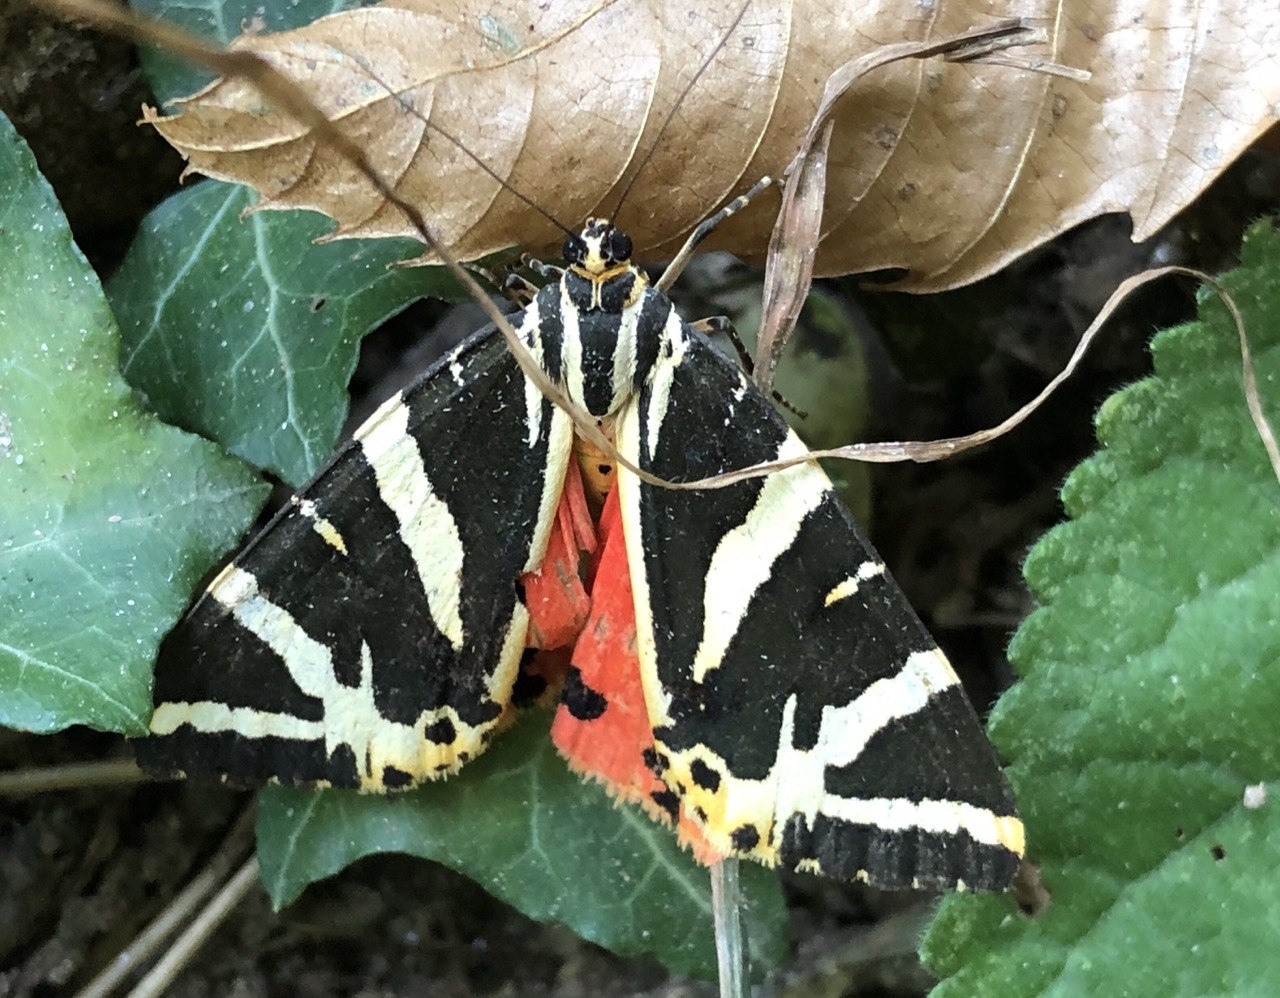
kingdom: Animalia
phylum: Arthropoda
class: Insecta
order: Lepidoptera
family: Erebidae
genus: Euplagia
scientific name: Euplagia quadripunctaria
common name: Jersey tiger
